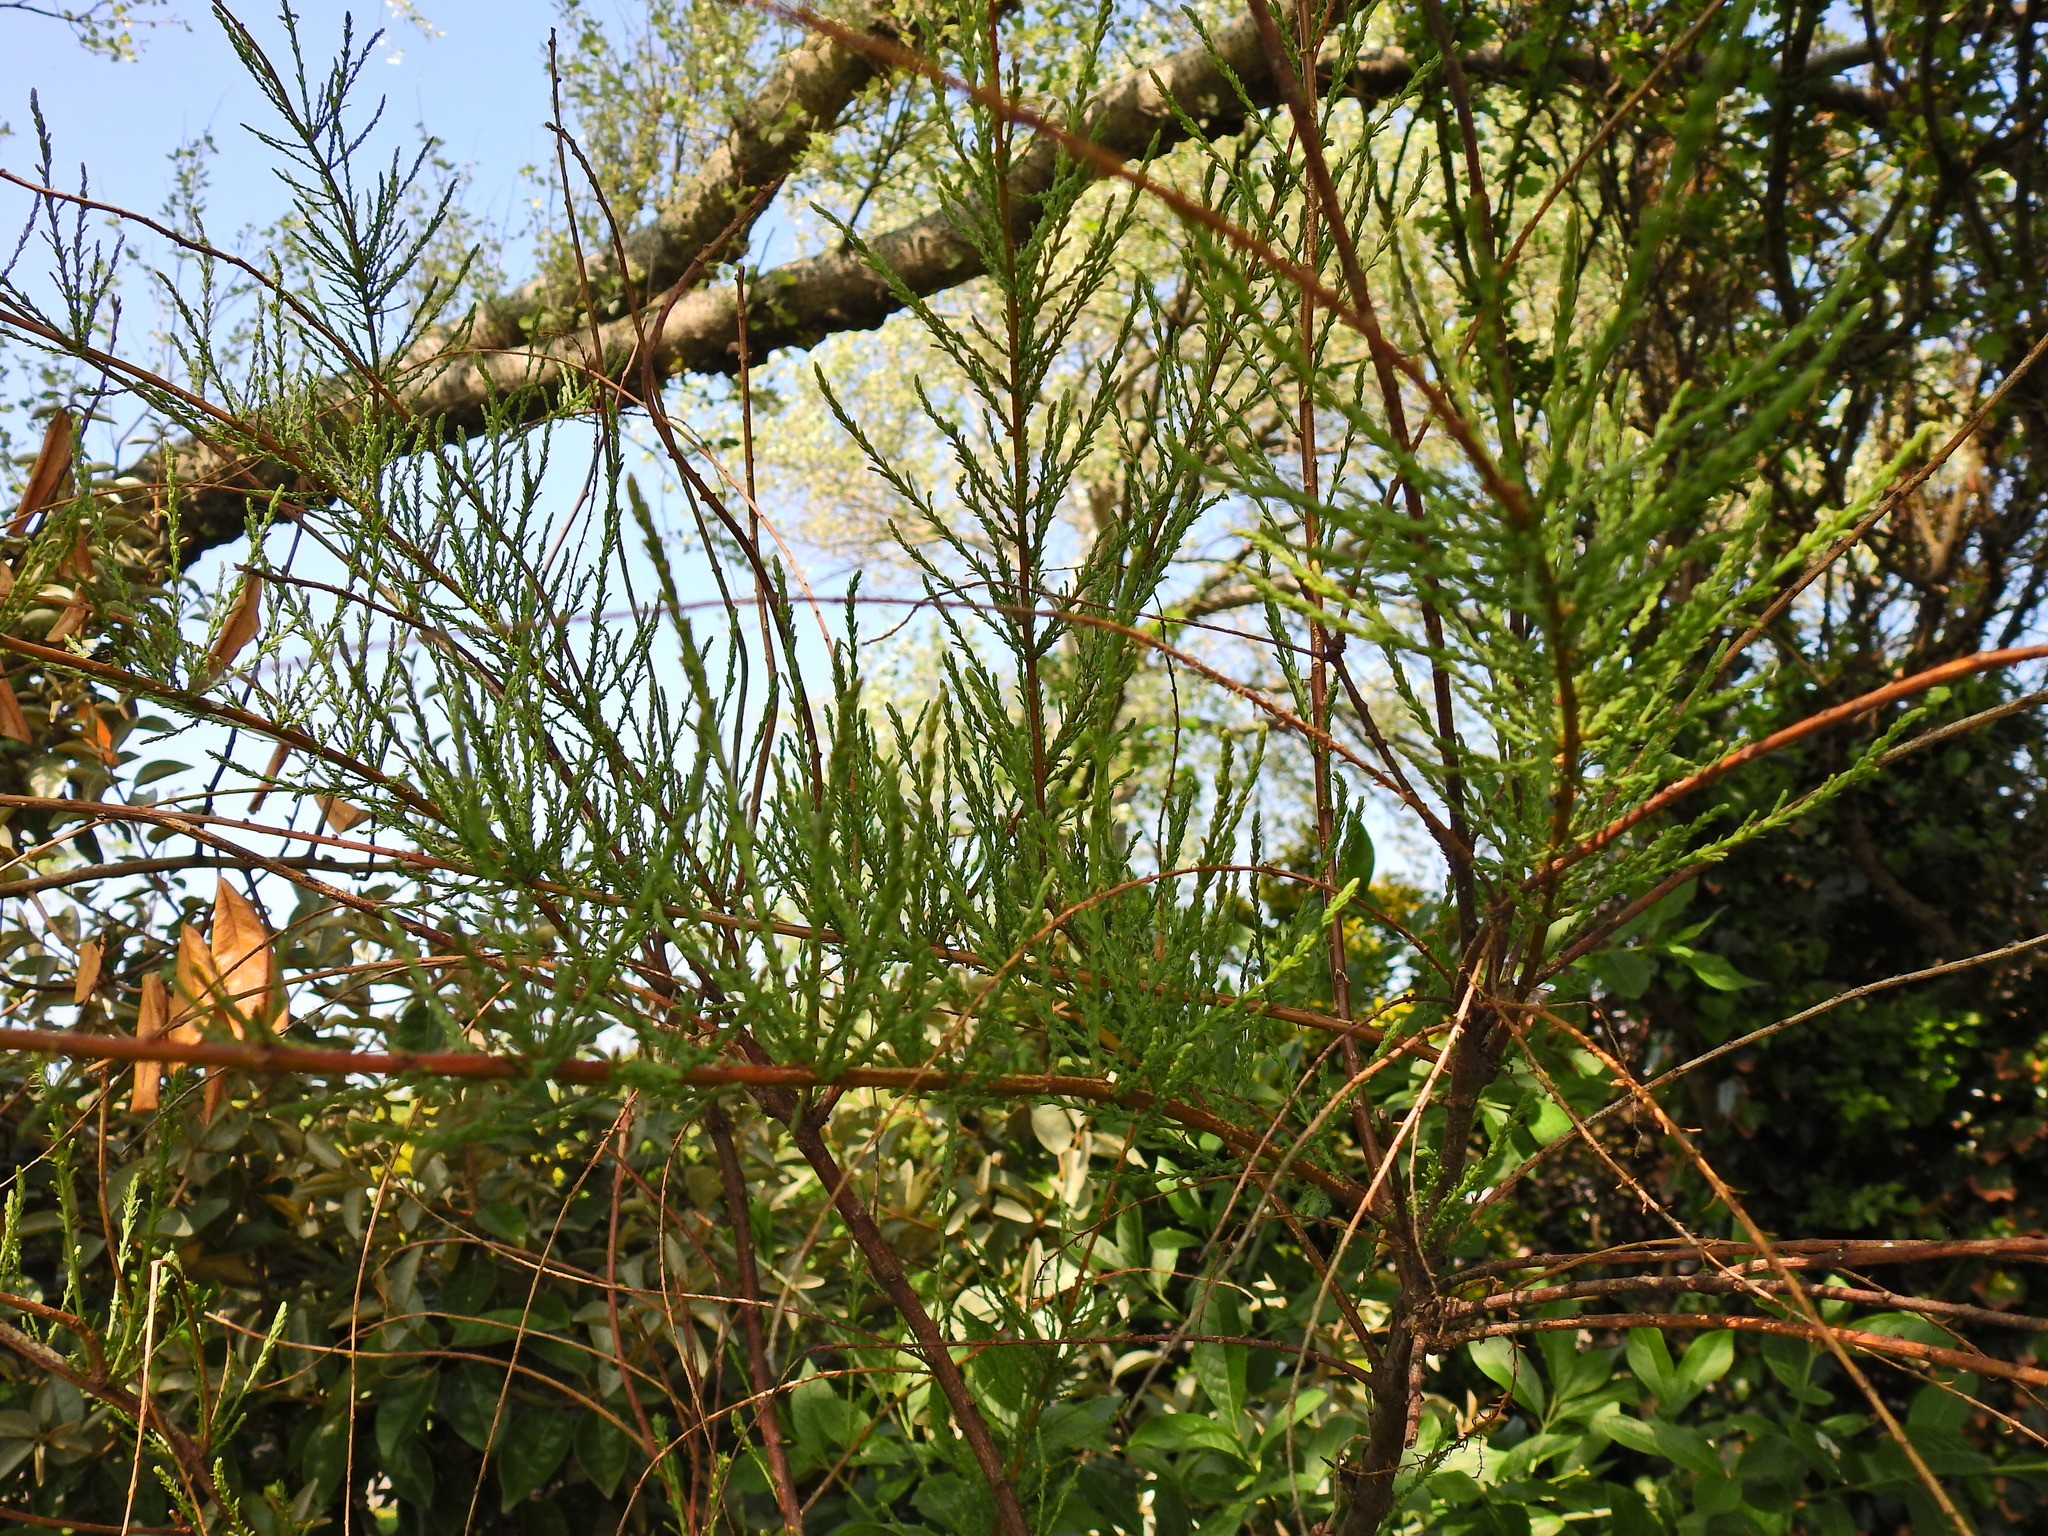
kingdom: Plantae
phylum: Tracheophyta
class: Magnoliopsida
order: Fabales
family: Fabaceae
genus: Cytisus
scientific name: Cytisus scoparius
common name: Scotch broom
